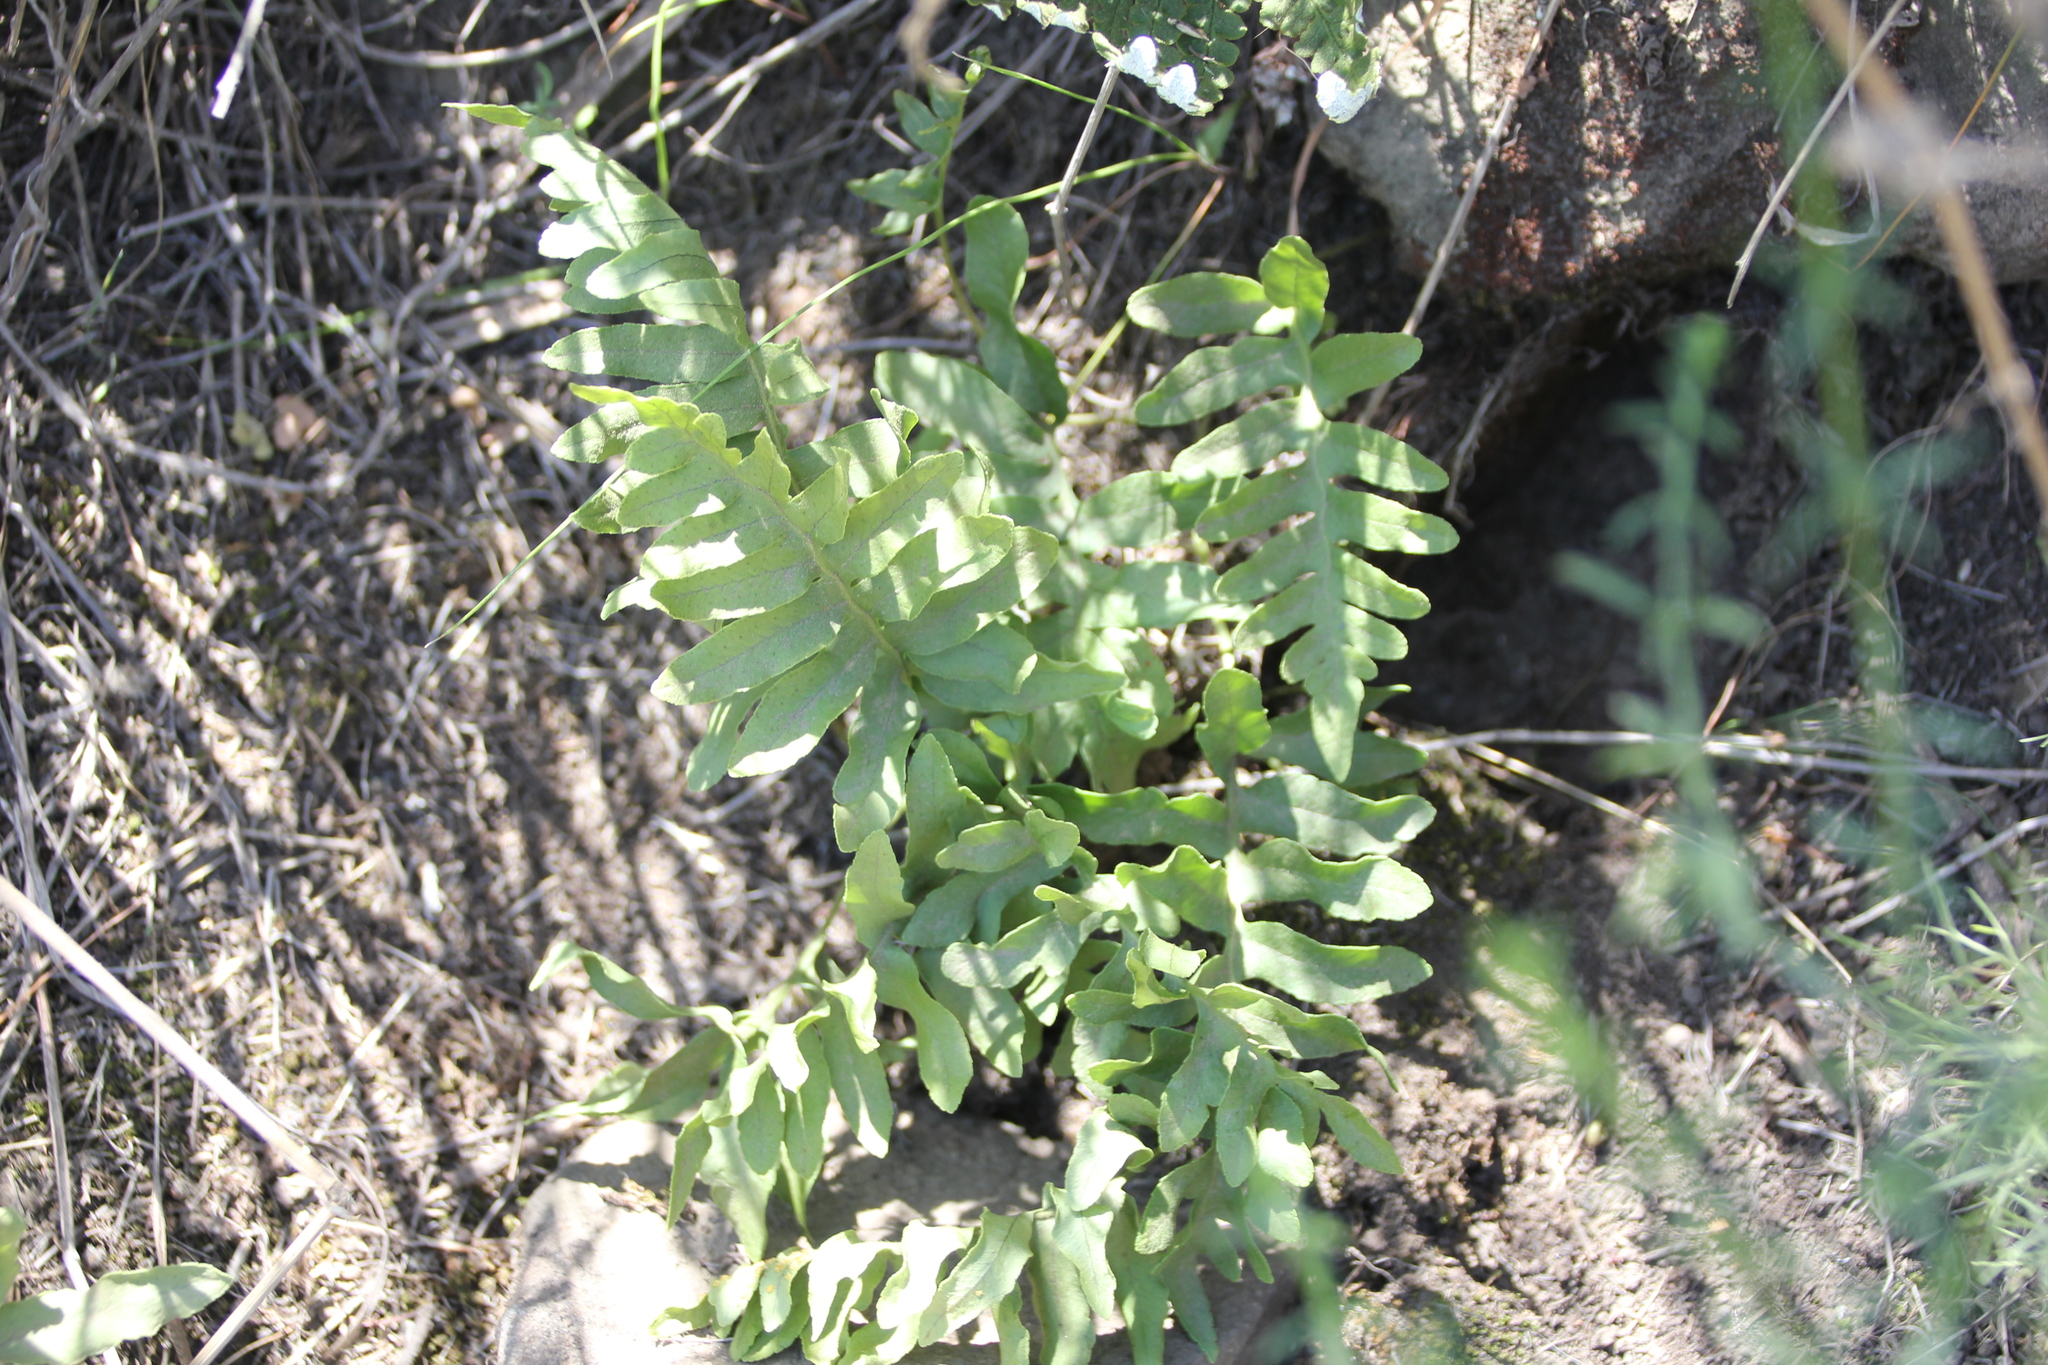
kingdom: Plantae
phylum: Tracheophyta
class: Polypodiopsida
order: Polypodiales
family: Polypodiaceae
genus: Polypodium
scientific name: Polypodium californicum
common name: California polypody
